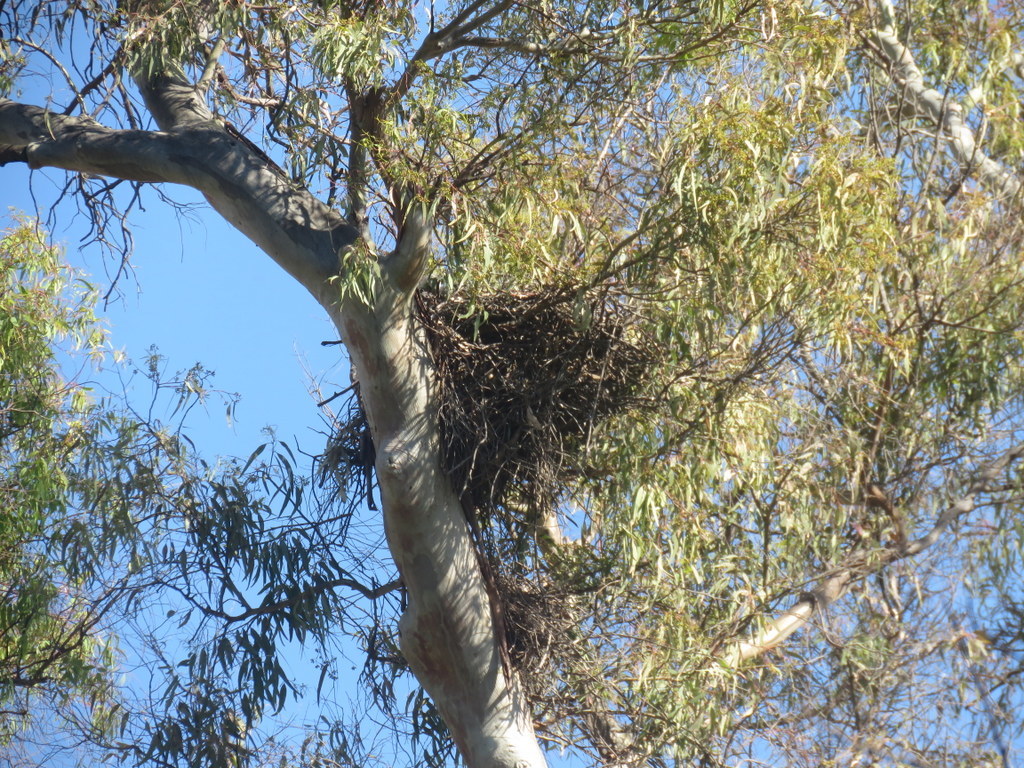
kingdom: Animalia
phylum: Chordata
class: Aves
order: Accipitriformes
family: Accipitridae
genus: Parabuteo
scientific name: Parabuteo unicinctus
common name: Harris's hawk
